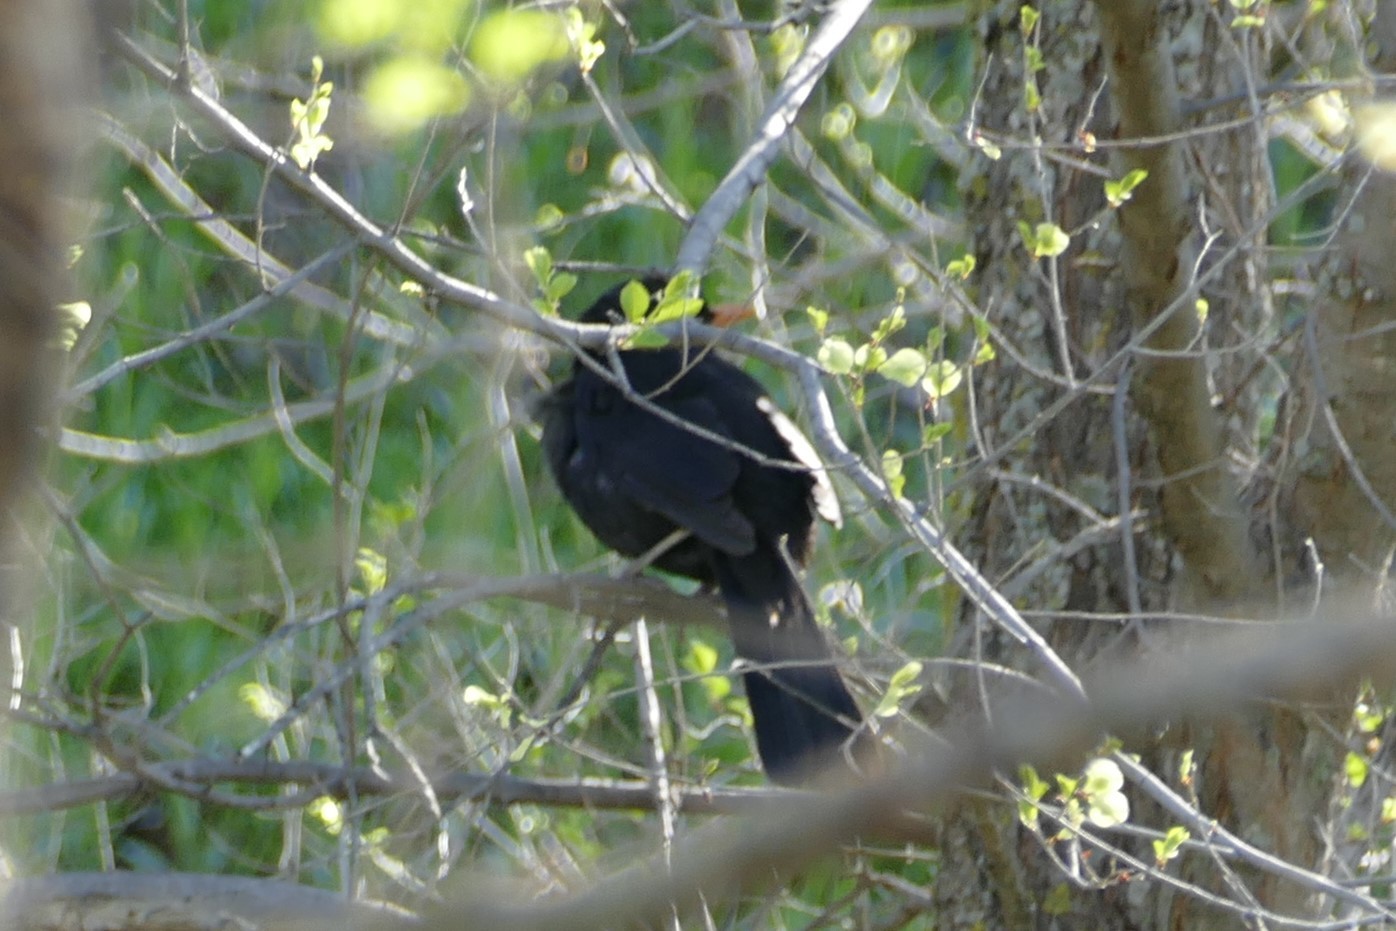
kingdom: Animalia
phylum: Chordata
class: Aves
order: Passeriformes
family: Turdidae
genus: Turdus
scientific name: Turdus merula
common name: Common blackbird
